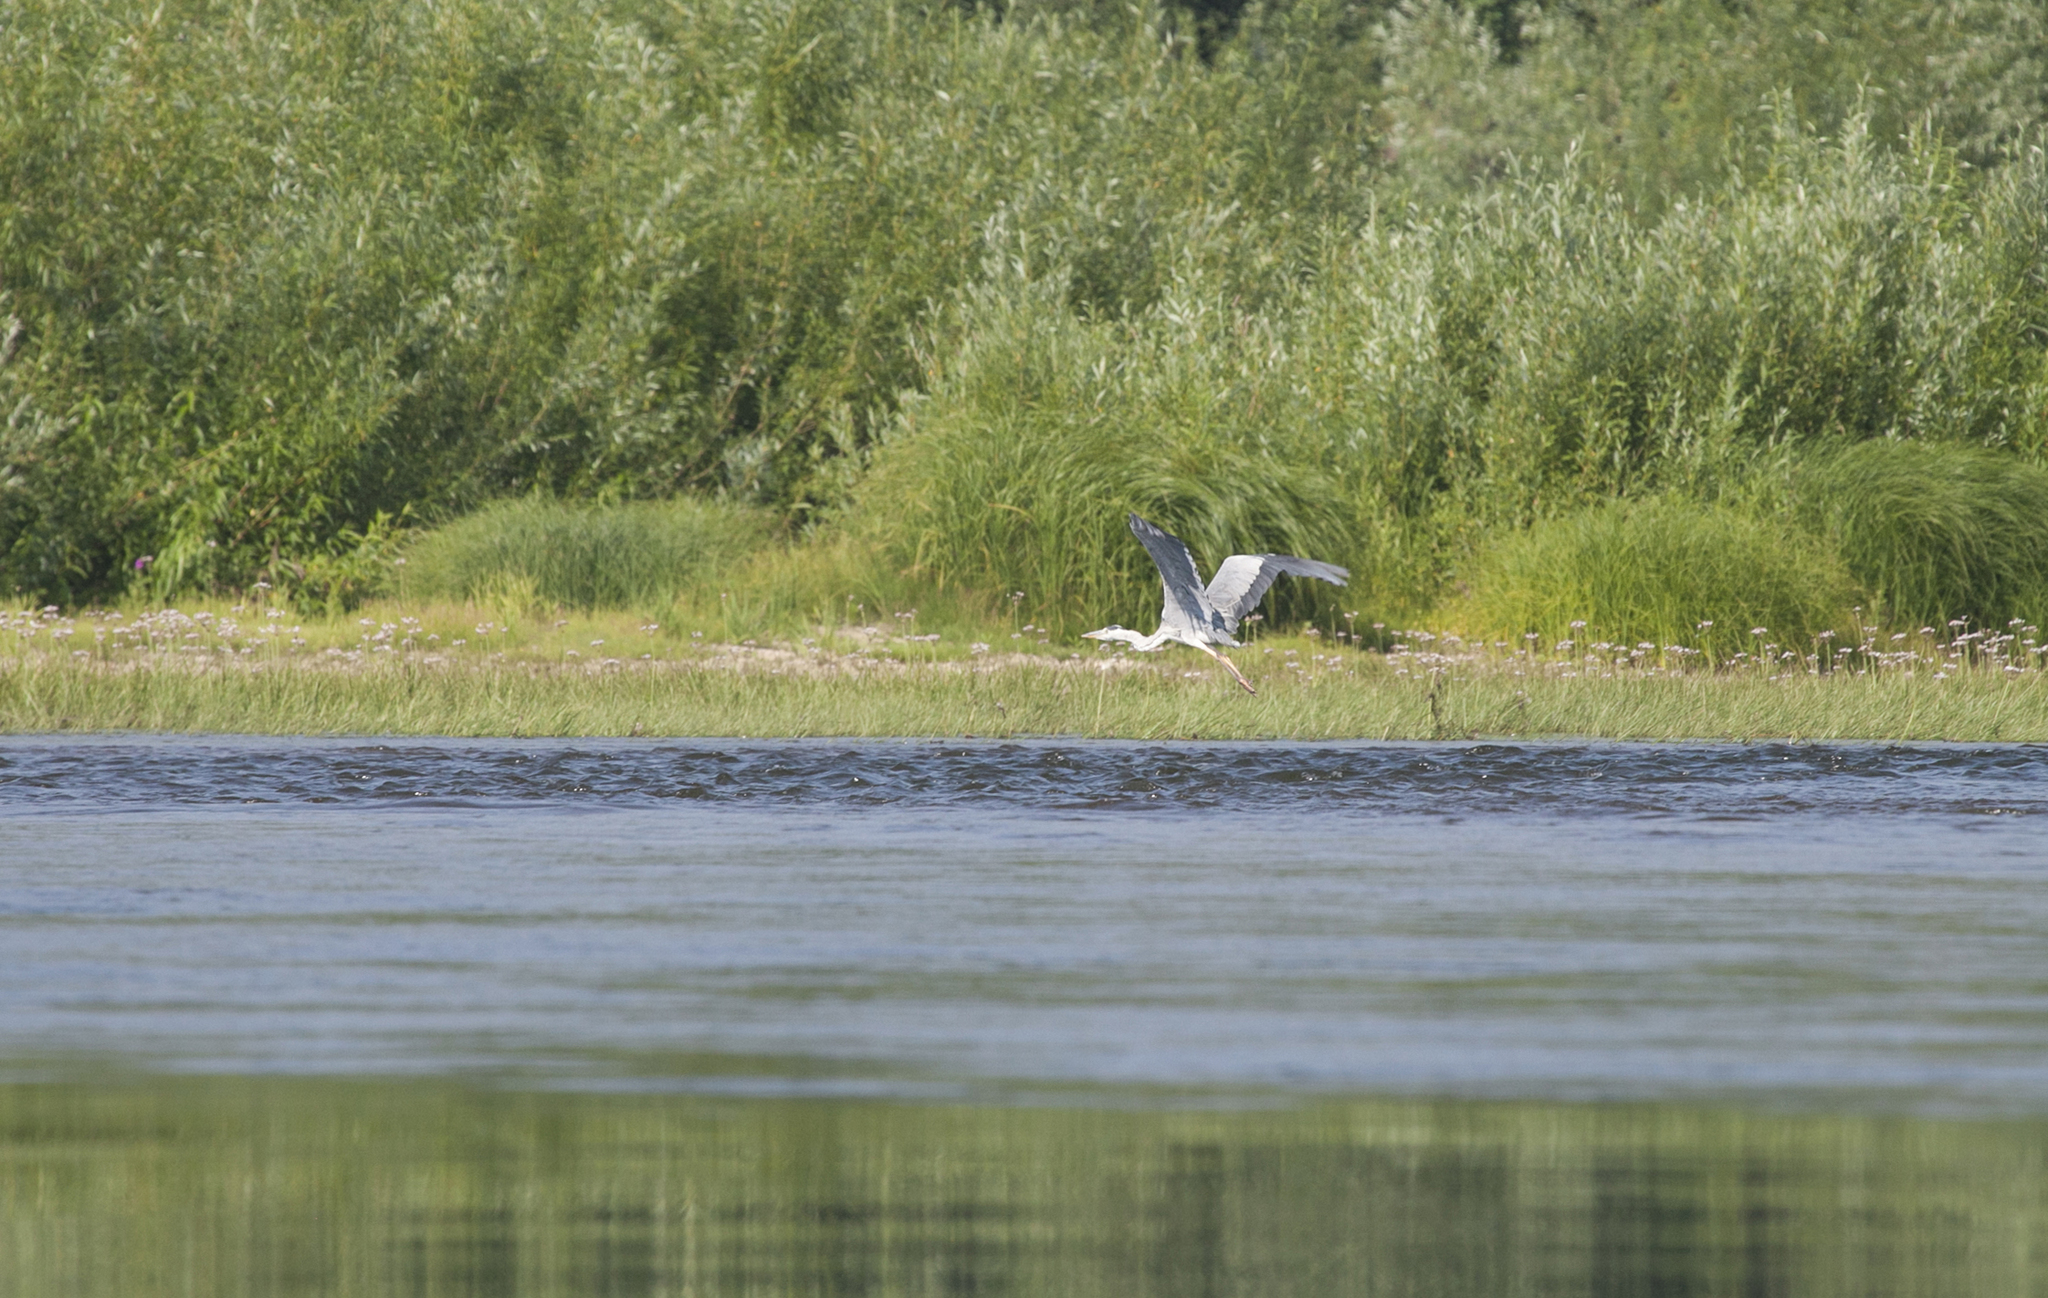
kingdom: Animalia
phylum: Chordata
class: Aves
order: Pelecaniformes
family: Ardeidae
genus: Ardea
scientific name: Ardea cinerea
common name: Grey heron
